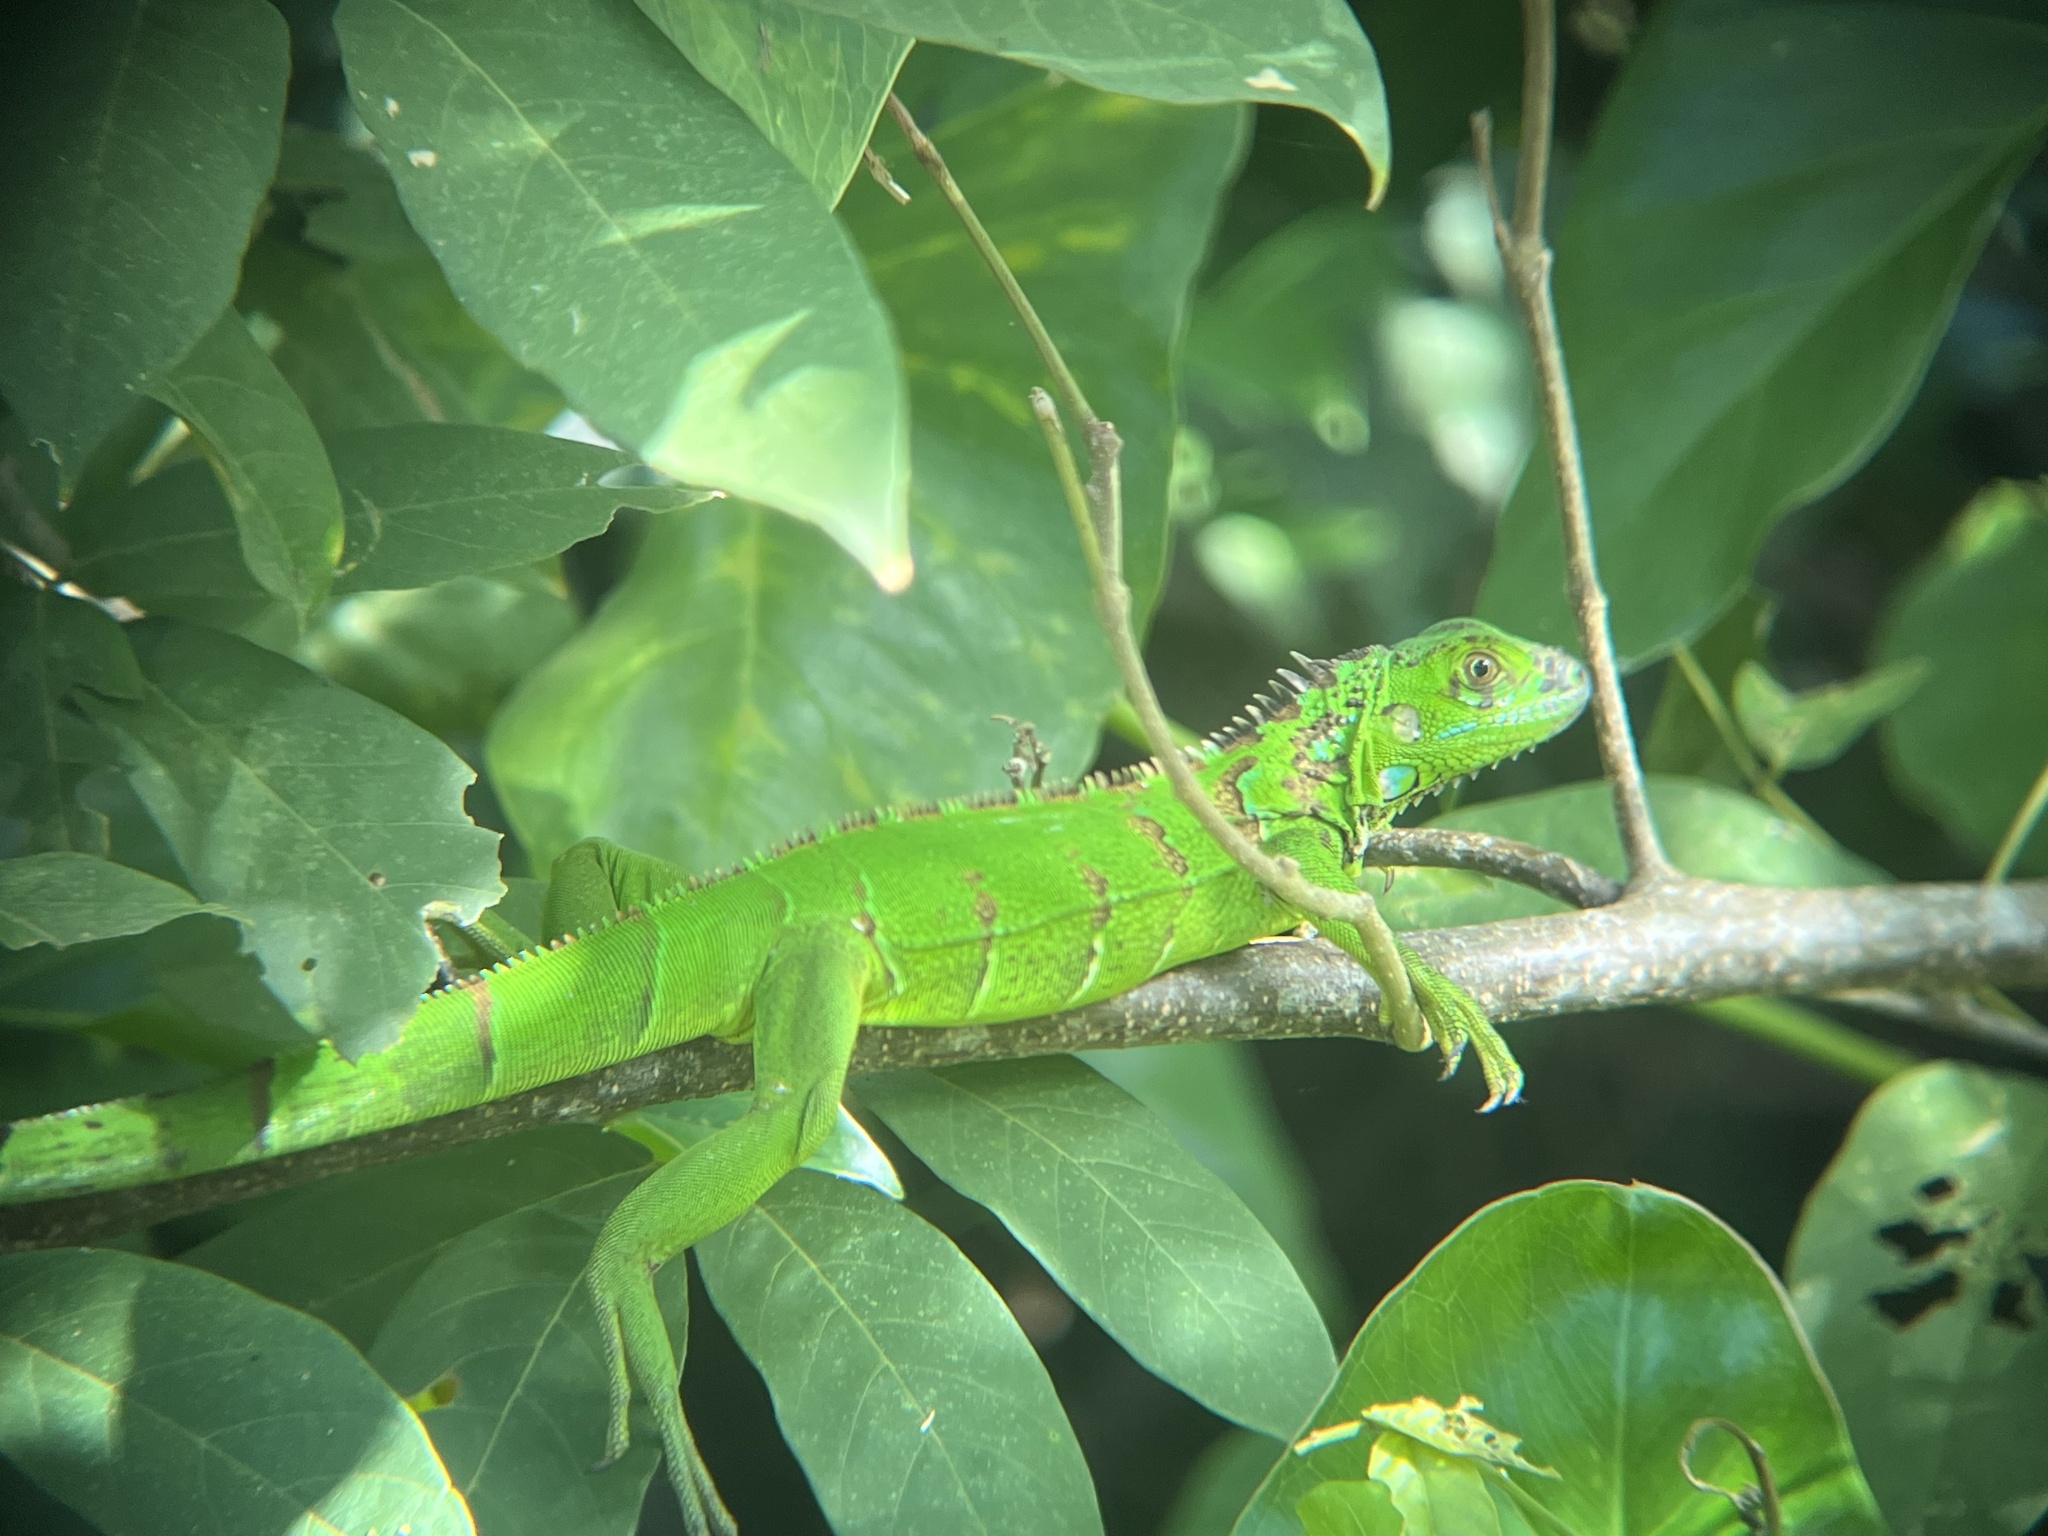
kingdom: Animalia
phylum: Chordata
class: Squamata
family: Iguanidae
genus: Iguana
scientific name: Iguana iguana
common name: Green iguana
